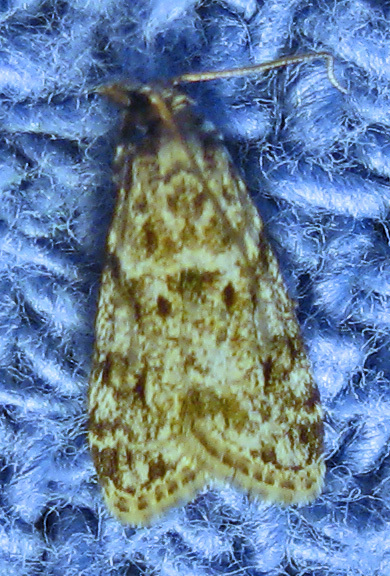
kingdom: Animalia
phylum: Arthropoda
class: Insecta
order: Lepidoptera
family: Crambidae
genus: Eudonia
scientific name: Eudonia heterosalis
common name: Mcdunnough's eudonia
